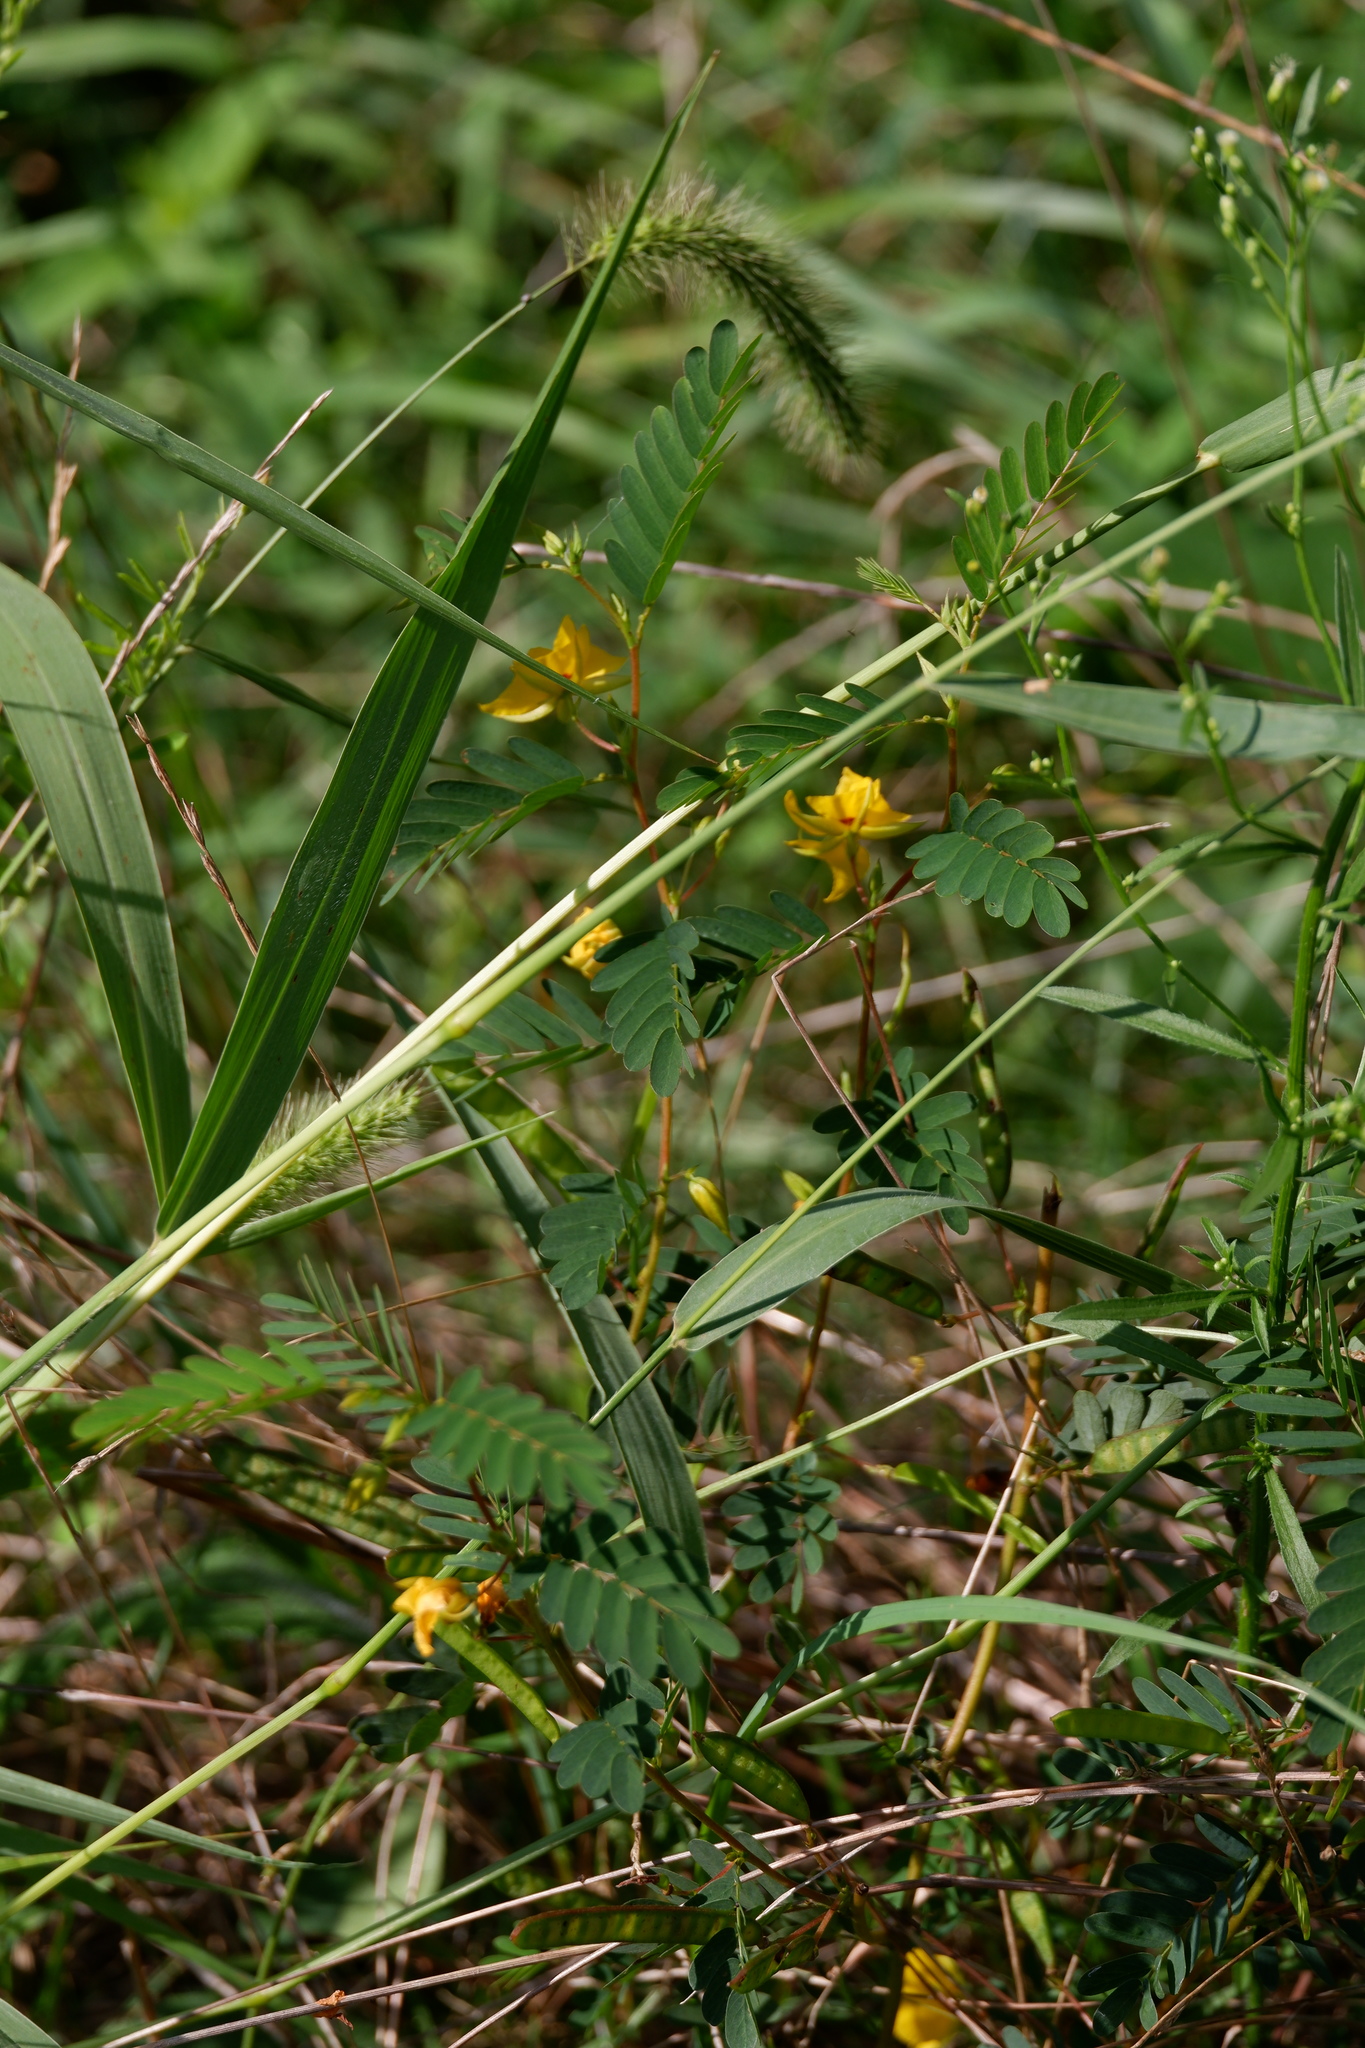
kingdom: Plantae
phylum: Tracheophyta
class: Magnoliopsida
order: Fabales
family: Fabaceae
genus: Chamaecrista
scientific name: Chamaecrista fasciculata
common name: Golden cassia
